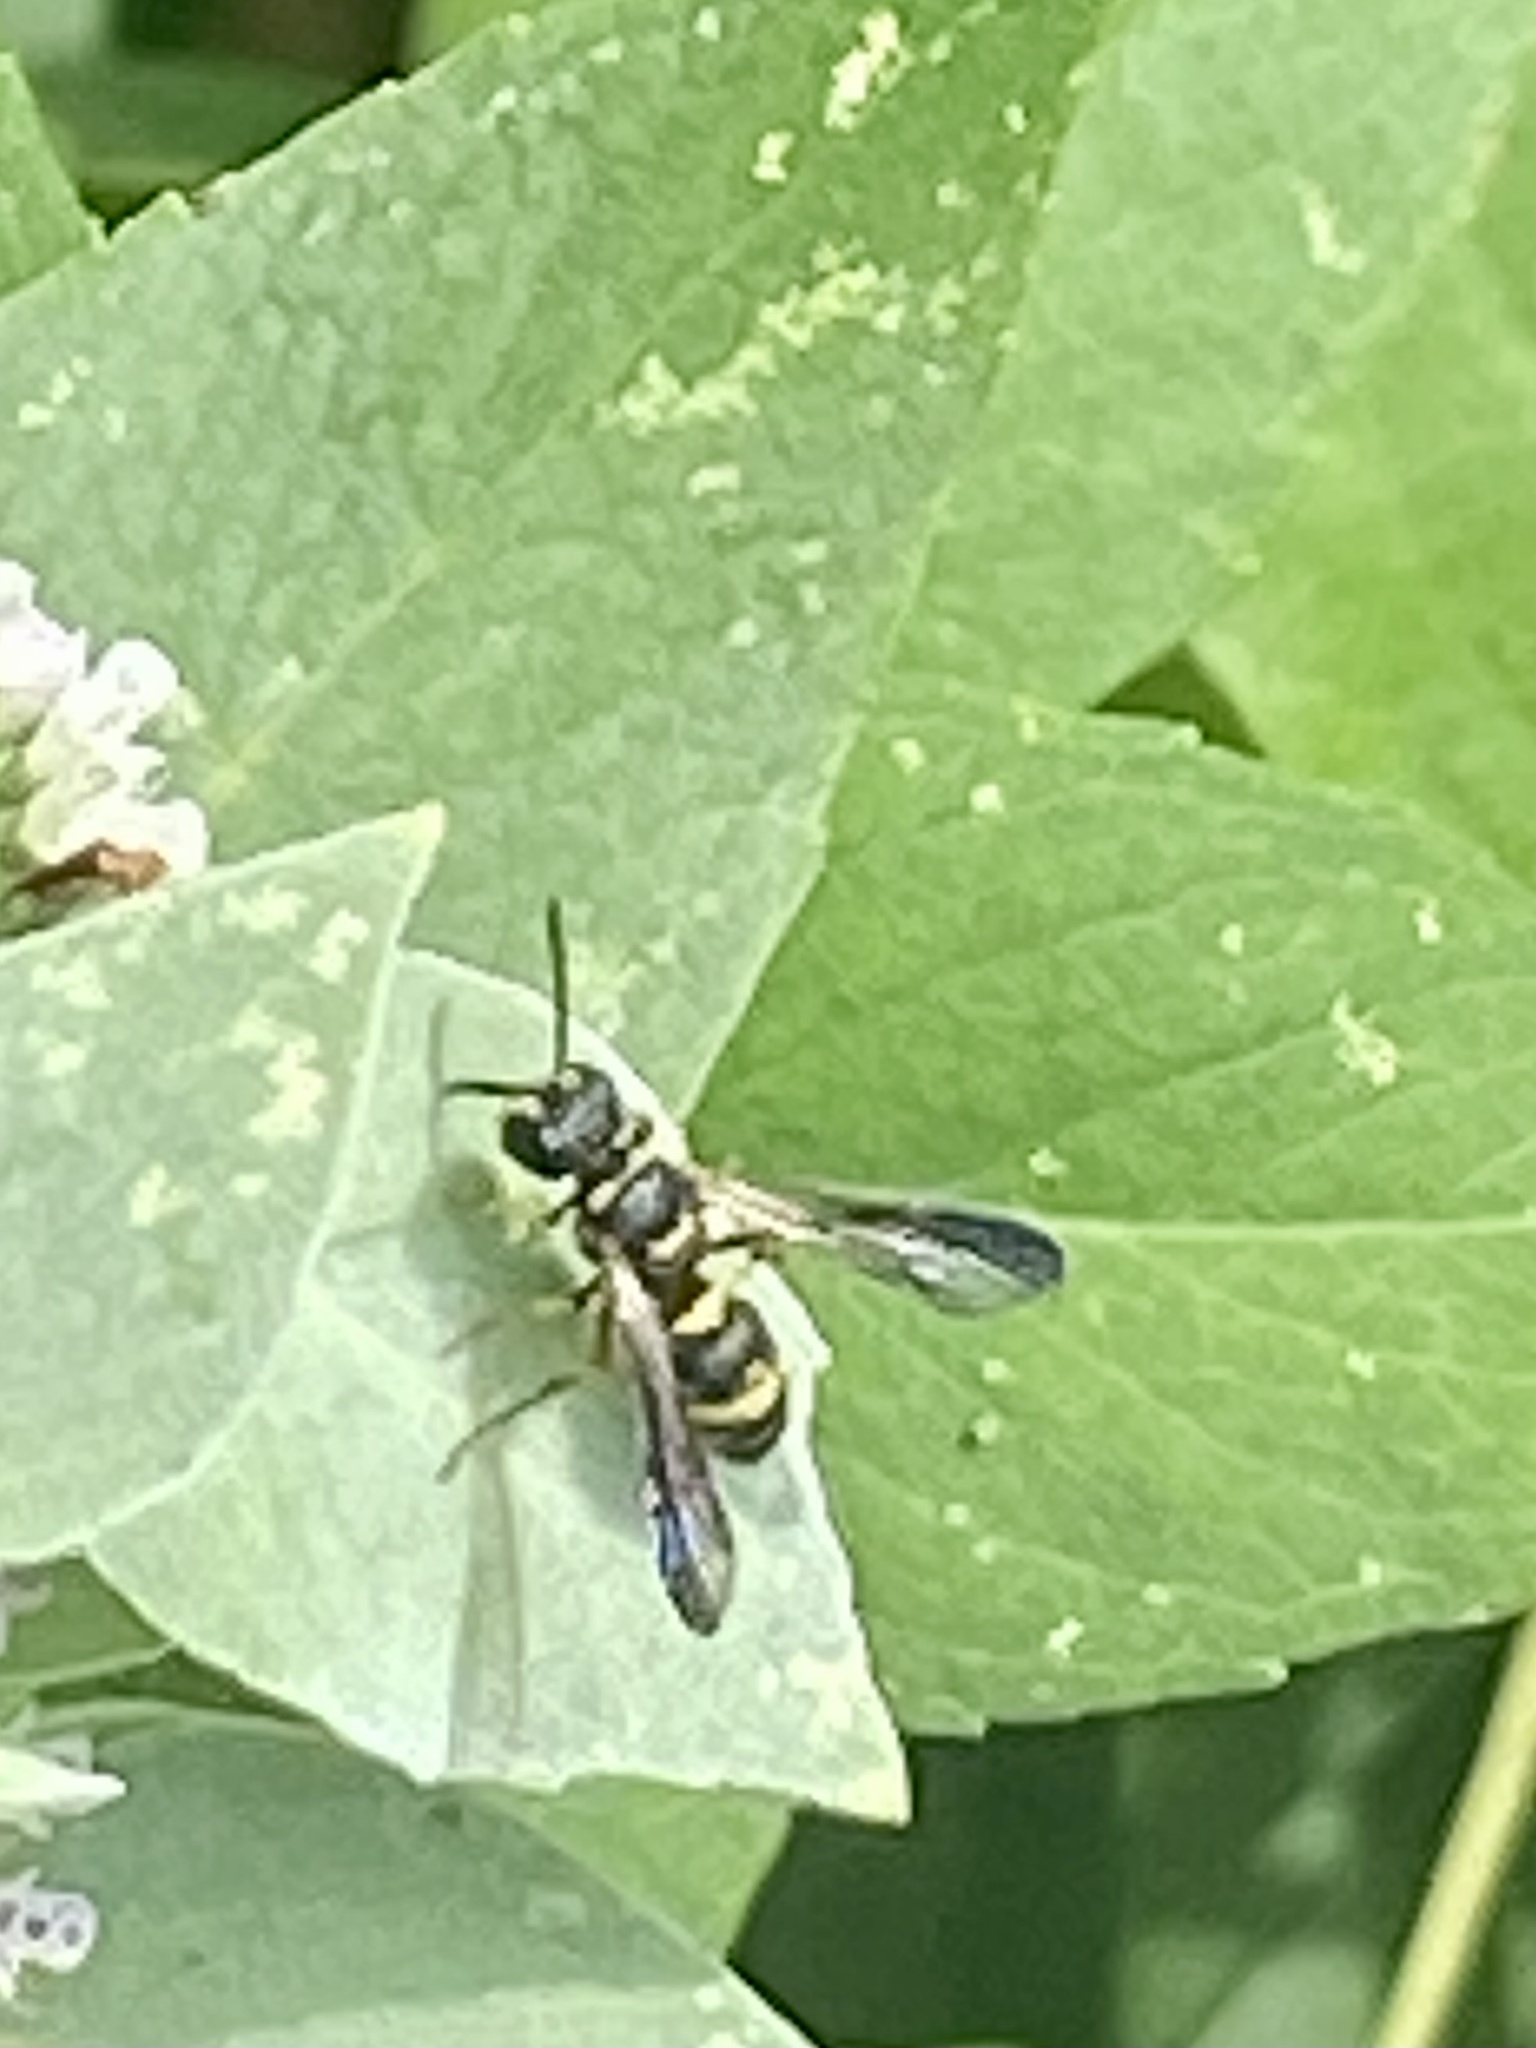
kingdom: Animalia
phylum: Arthropoda
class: Insecta
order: Hymenoptera
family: Crabronidae
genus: Cerceris
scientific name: Cerceris insolita
